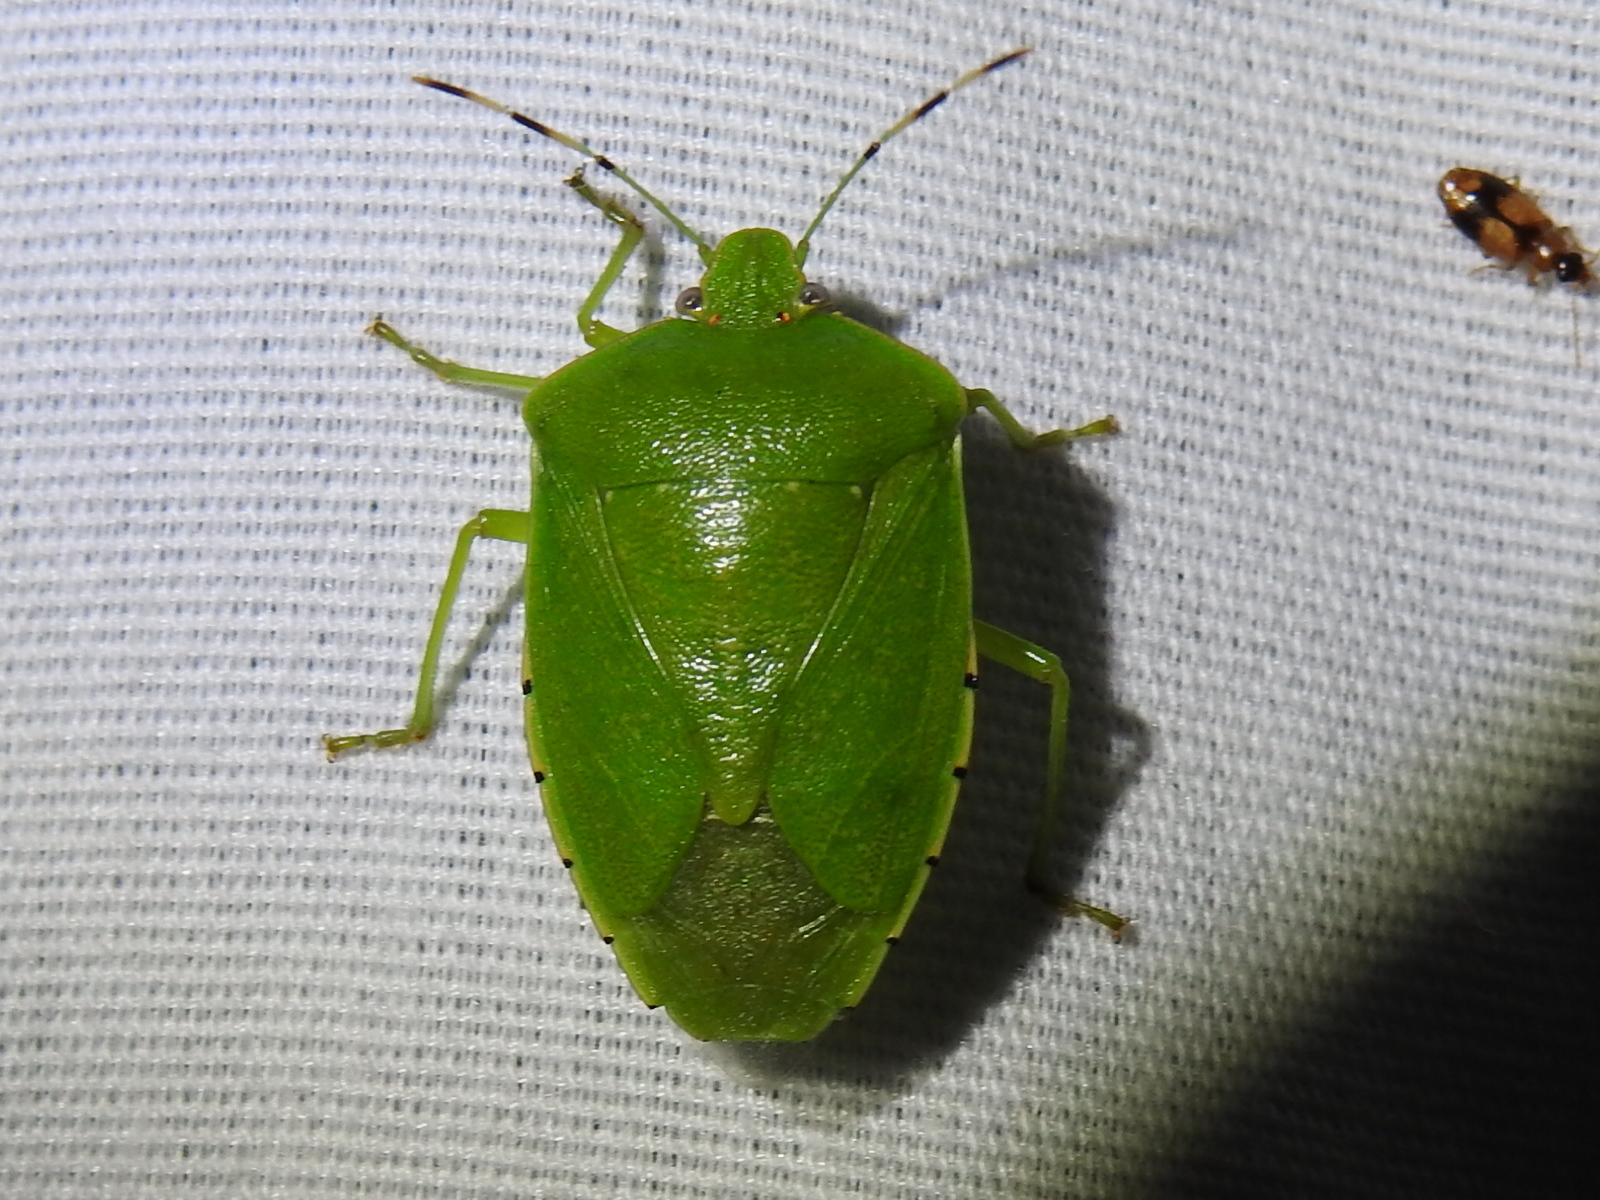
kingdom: Animalia
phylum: Arthropoda
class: Insecta
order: Hemiptera
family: Pentatomidae
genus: Chinavia
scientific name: Chinavia hilaris
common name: Green stink bug
